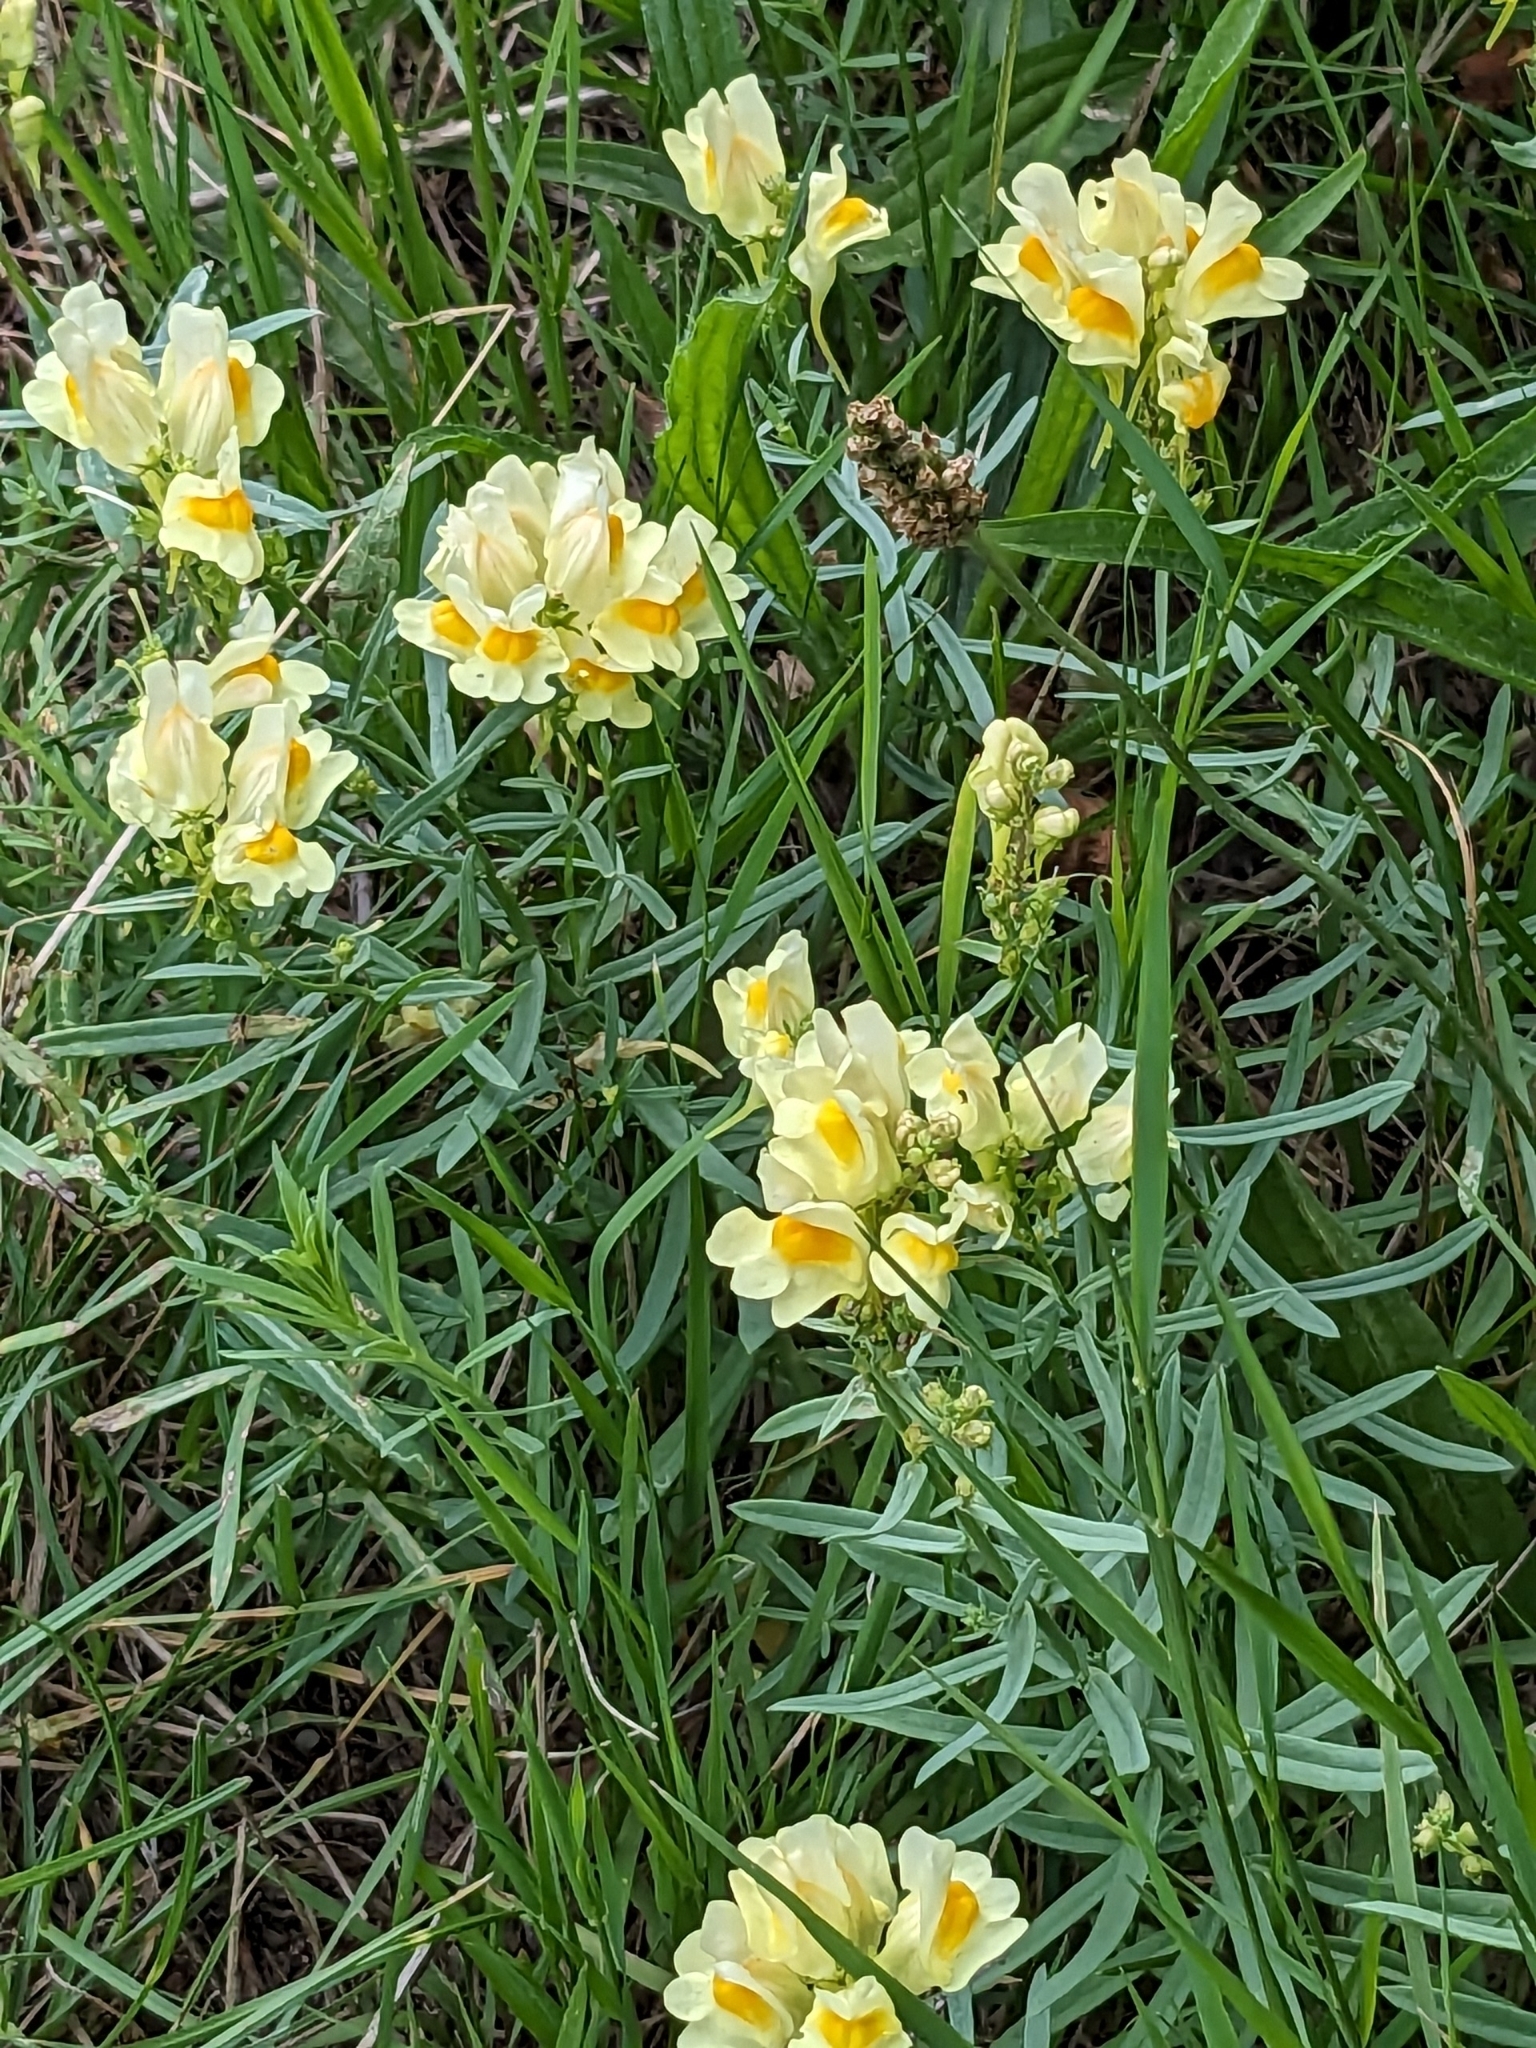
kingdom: Plantae
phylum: Tracheophyta
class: Magnoliopsida
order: Lamiales
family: Plantaginaceae
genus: Linaria
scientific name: Linaria vulgaris
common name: Butter and eggs
